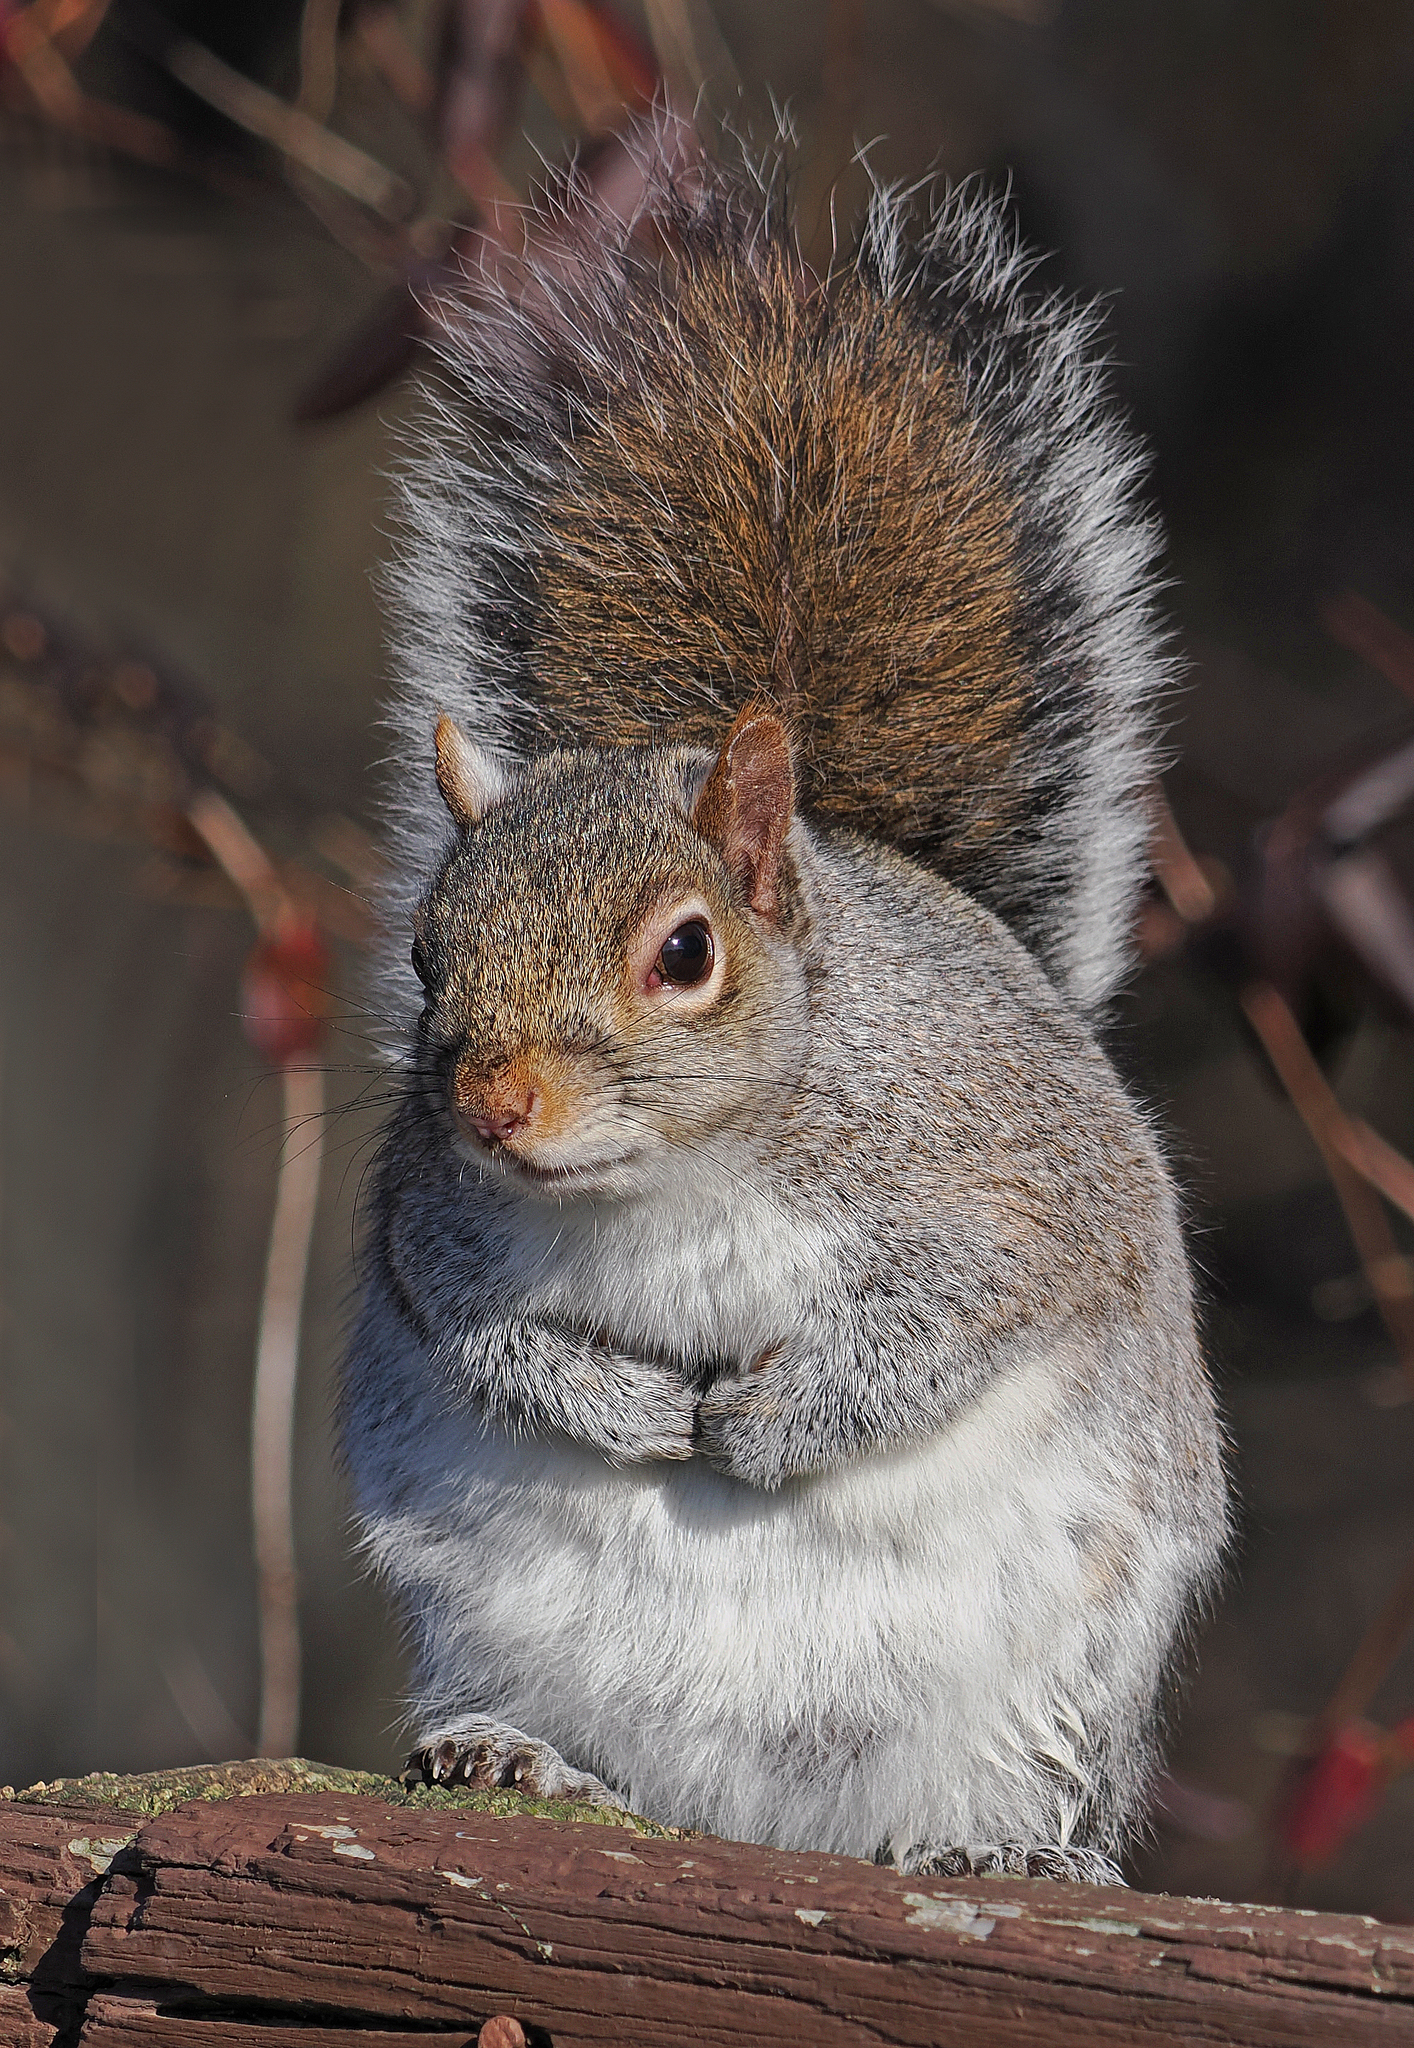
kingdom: Animalia
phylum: Chordata
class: Mammalia
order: Rodentia
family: Sciuridae
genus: Sciurus
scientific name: Sciurus carolinensis
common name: Eastern gray squirrel
